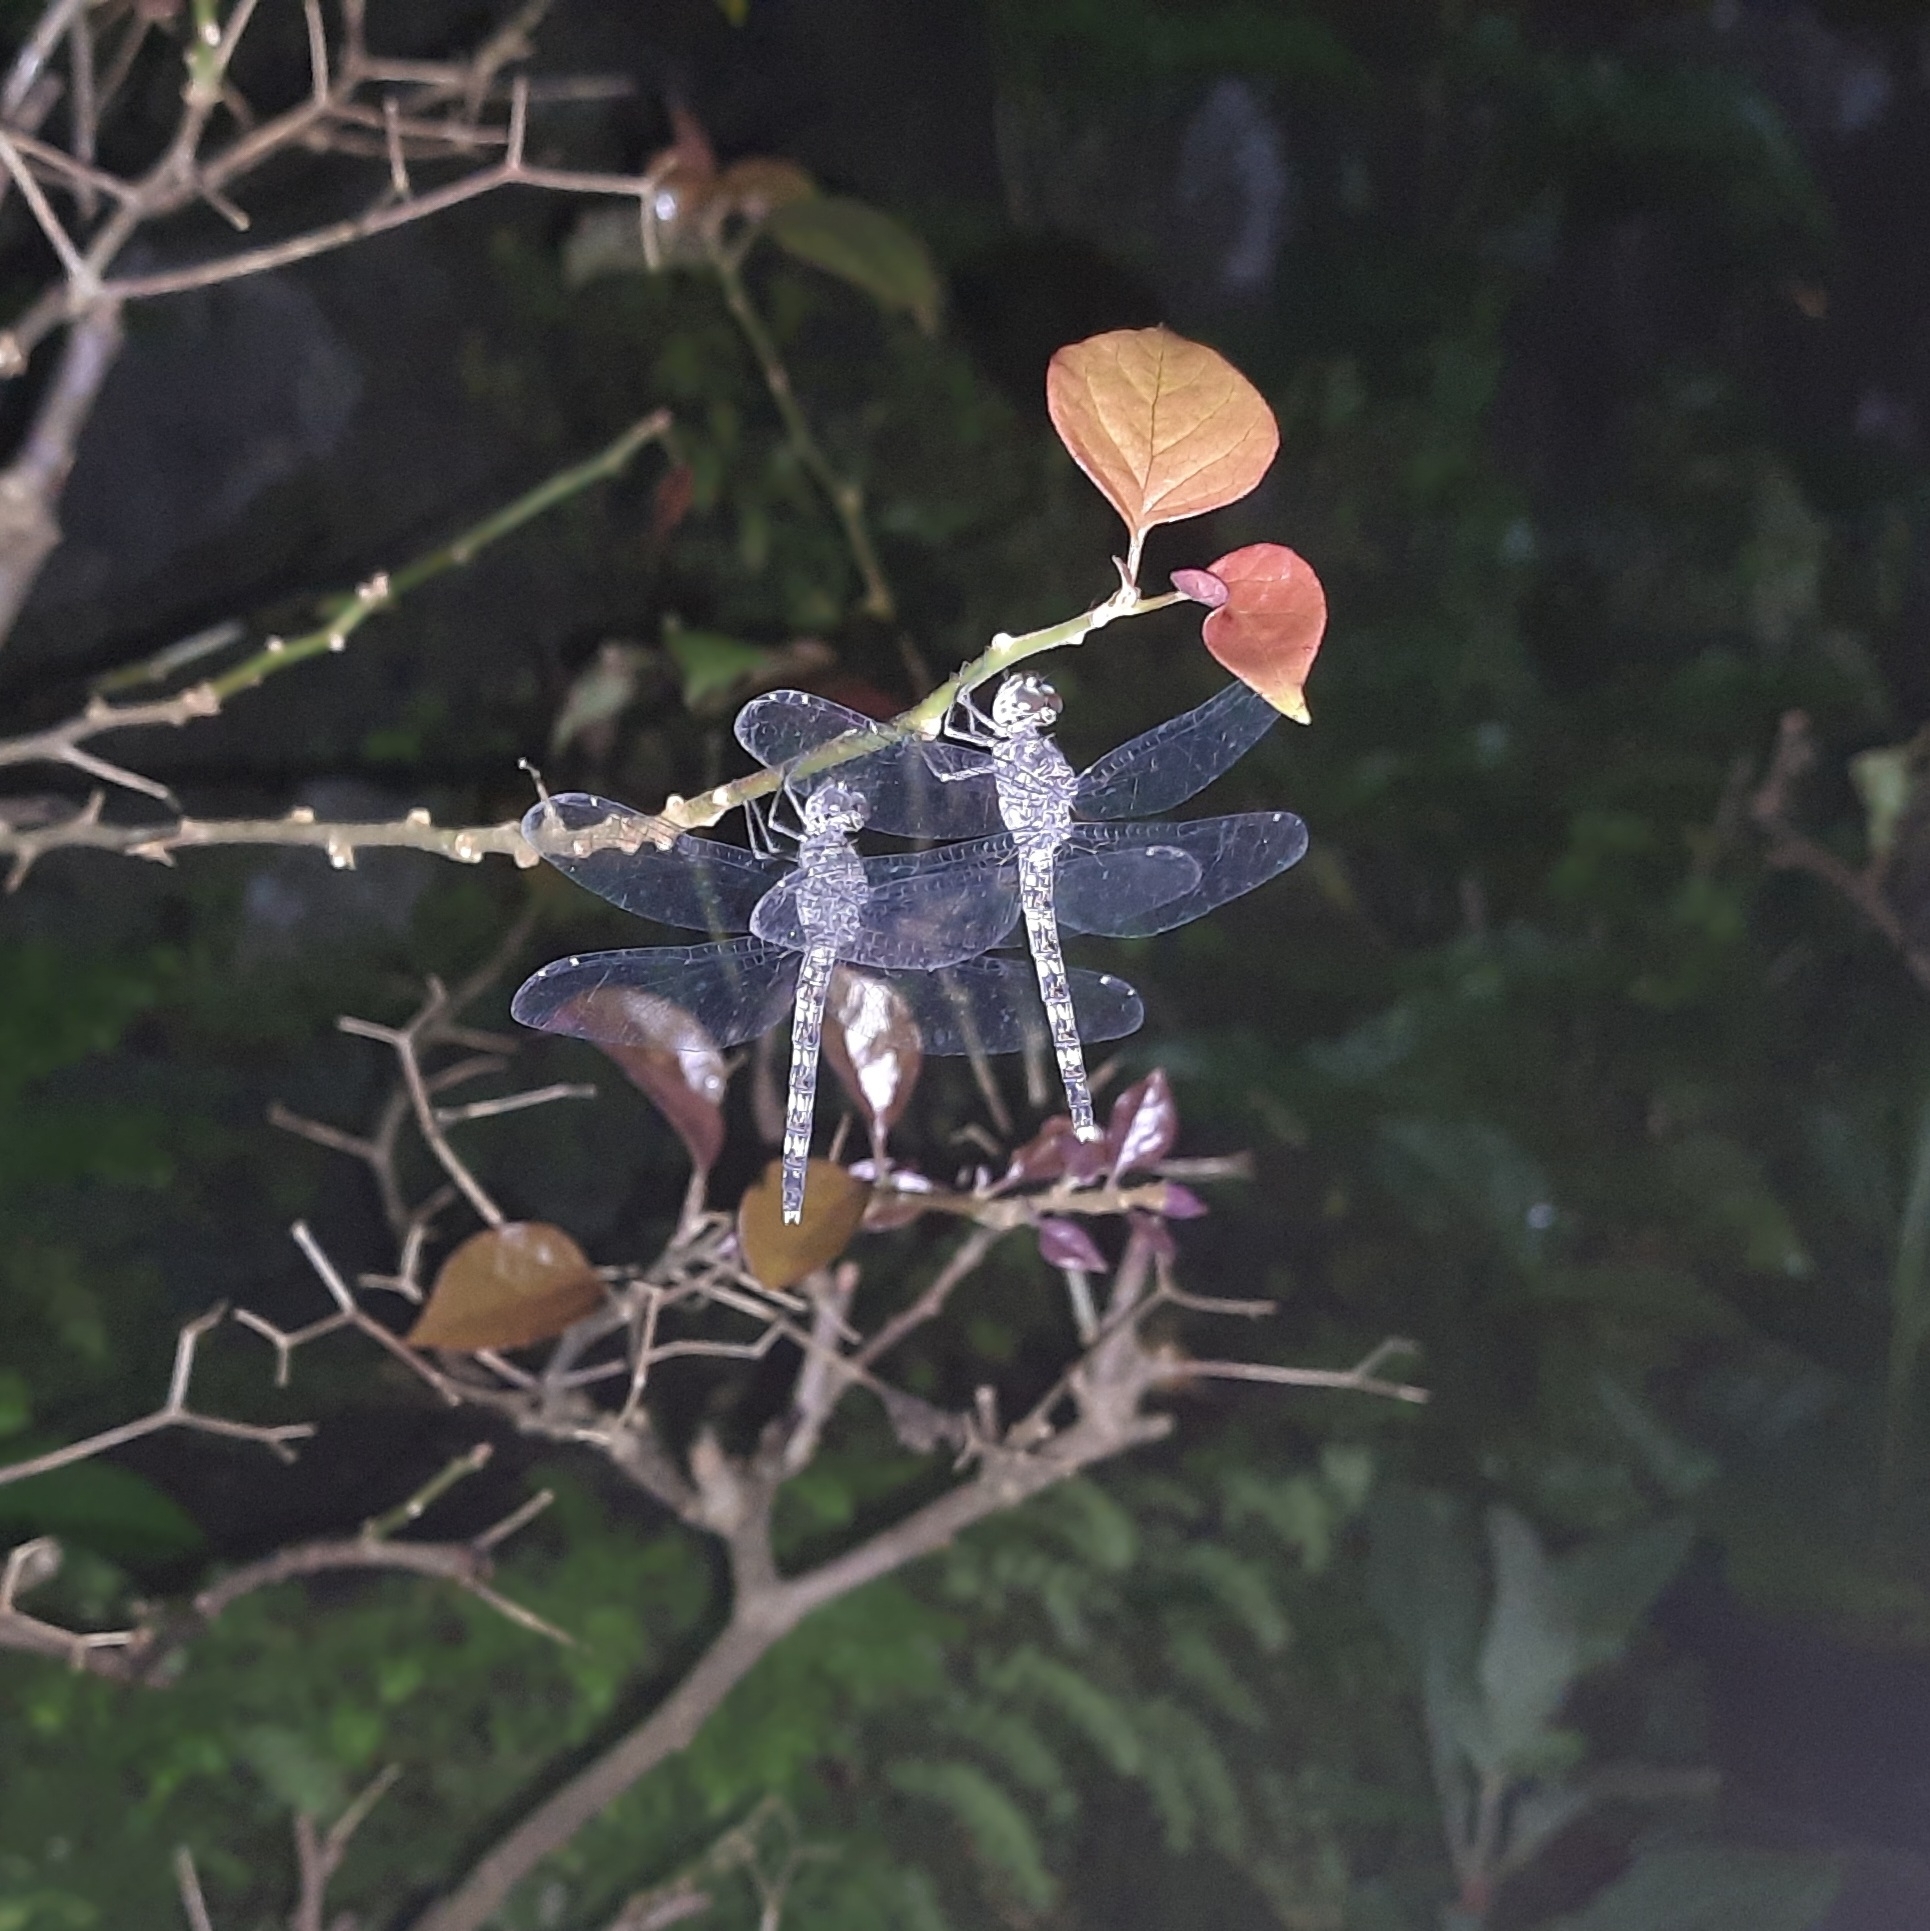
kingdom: Animalia
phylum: Arthropoda
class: Insecta
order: Odonata
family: Libellulidae
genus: Bradinopyga
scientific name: Bradinopyga geminata
